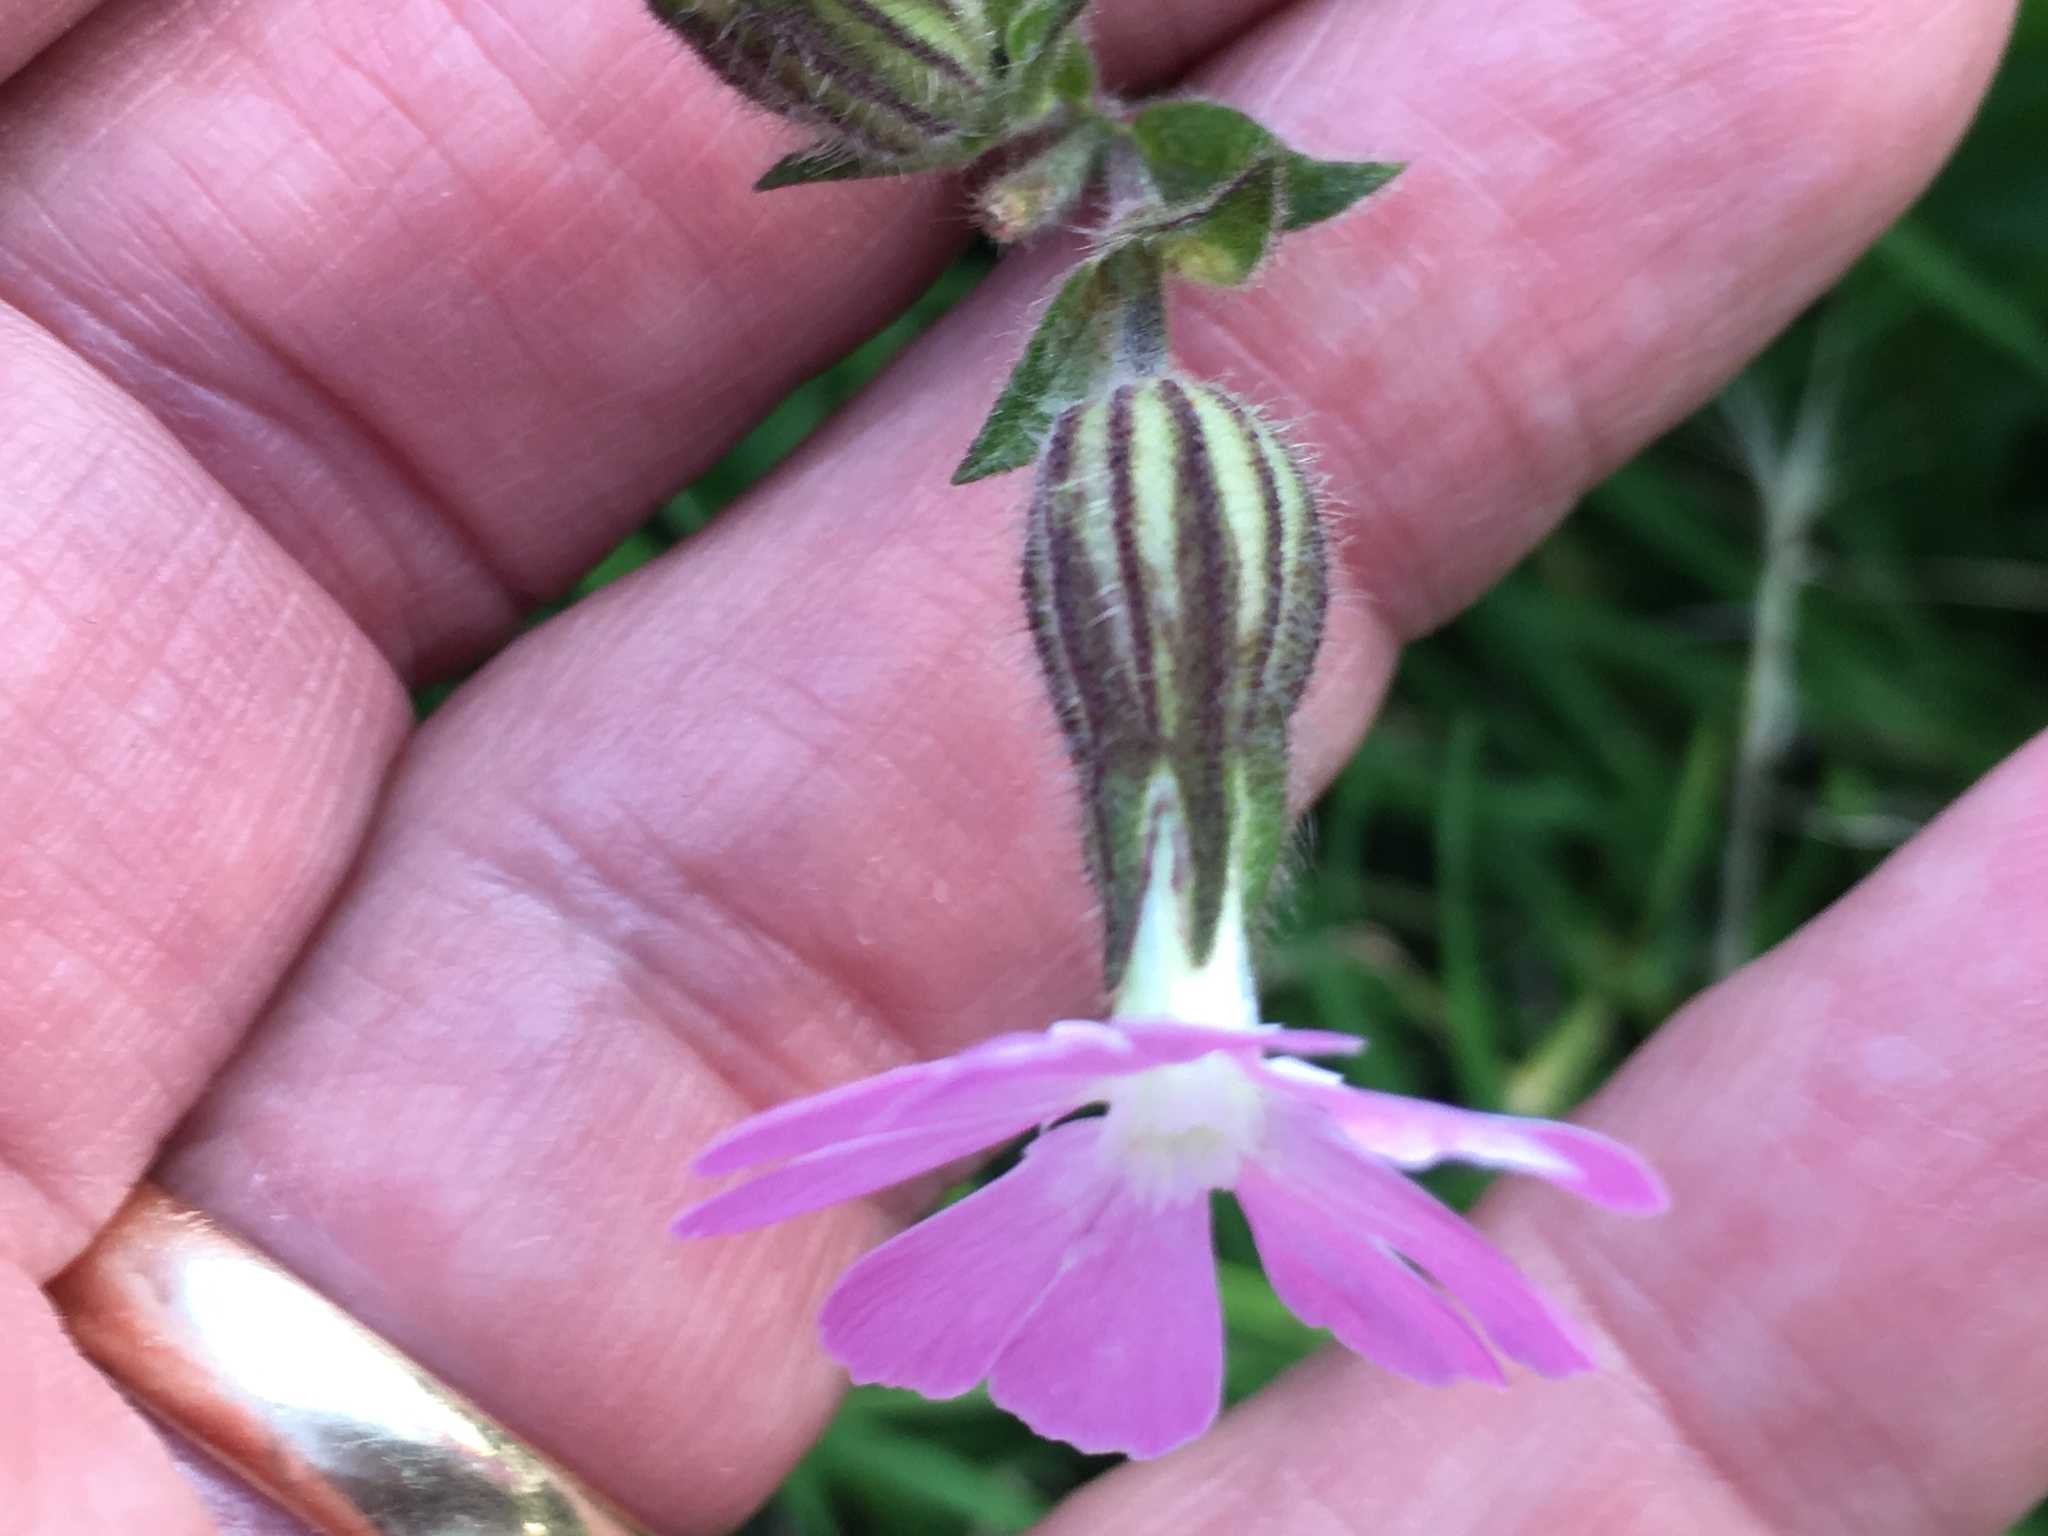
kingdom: Plantae
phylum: Tracheophyta
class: Magnoliopsida
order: Caryophyllales
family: Caryophyllaceae
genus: Silene
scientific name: Silene dioica
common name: Red campion
